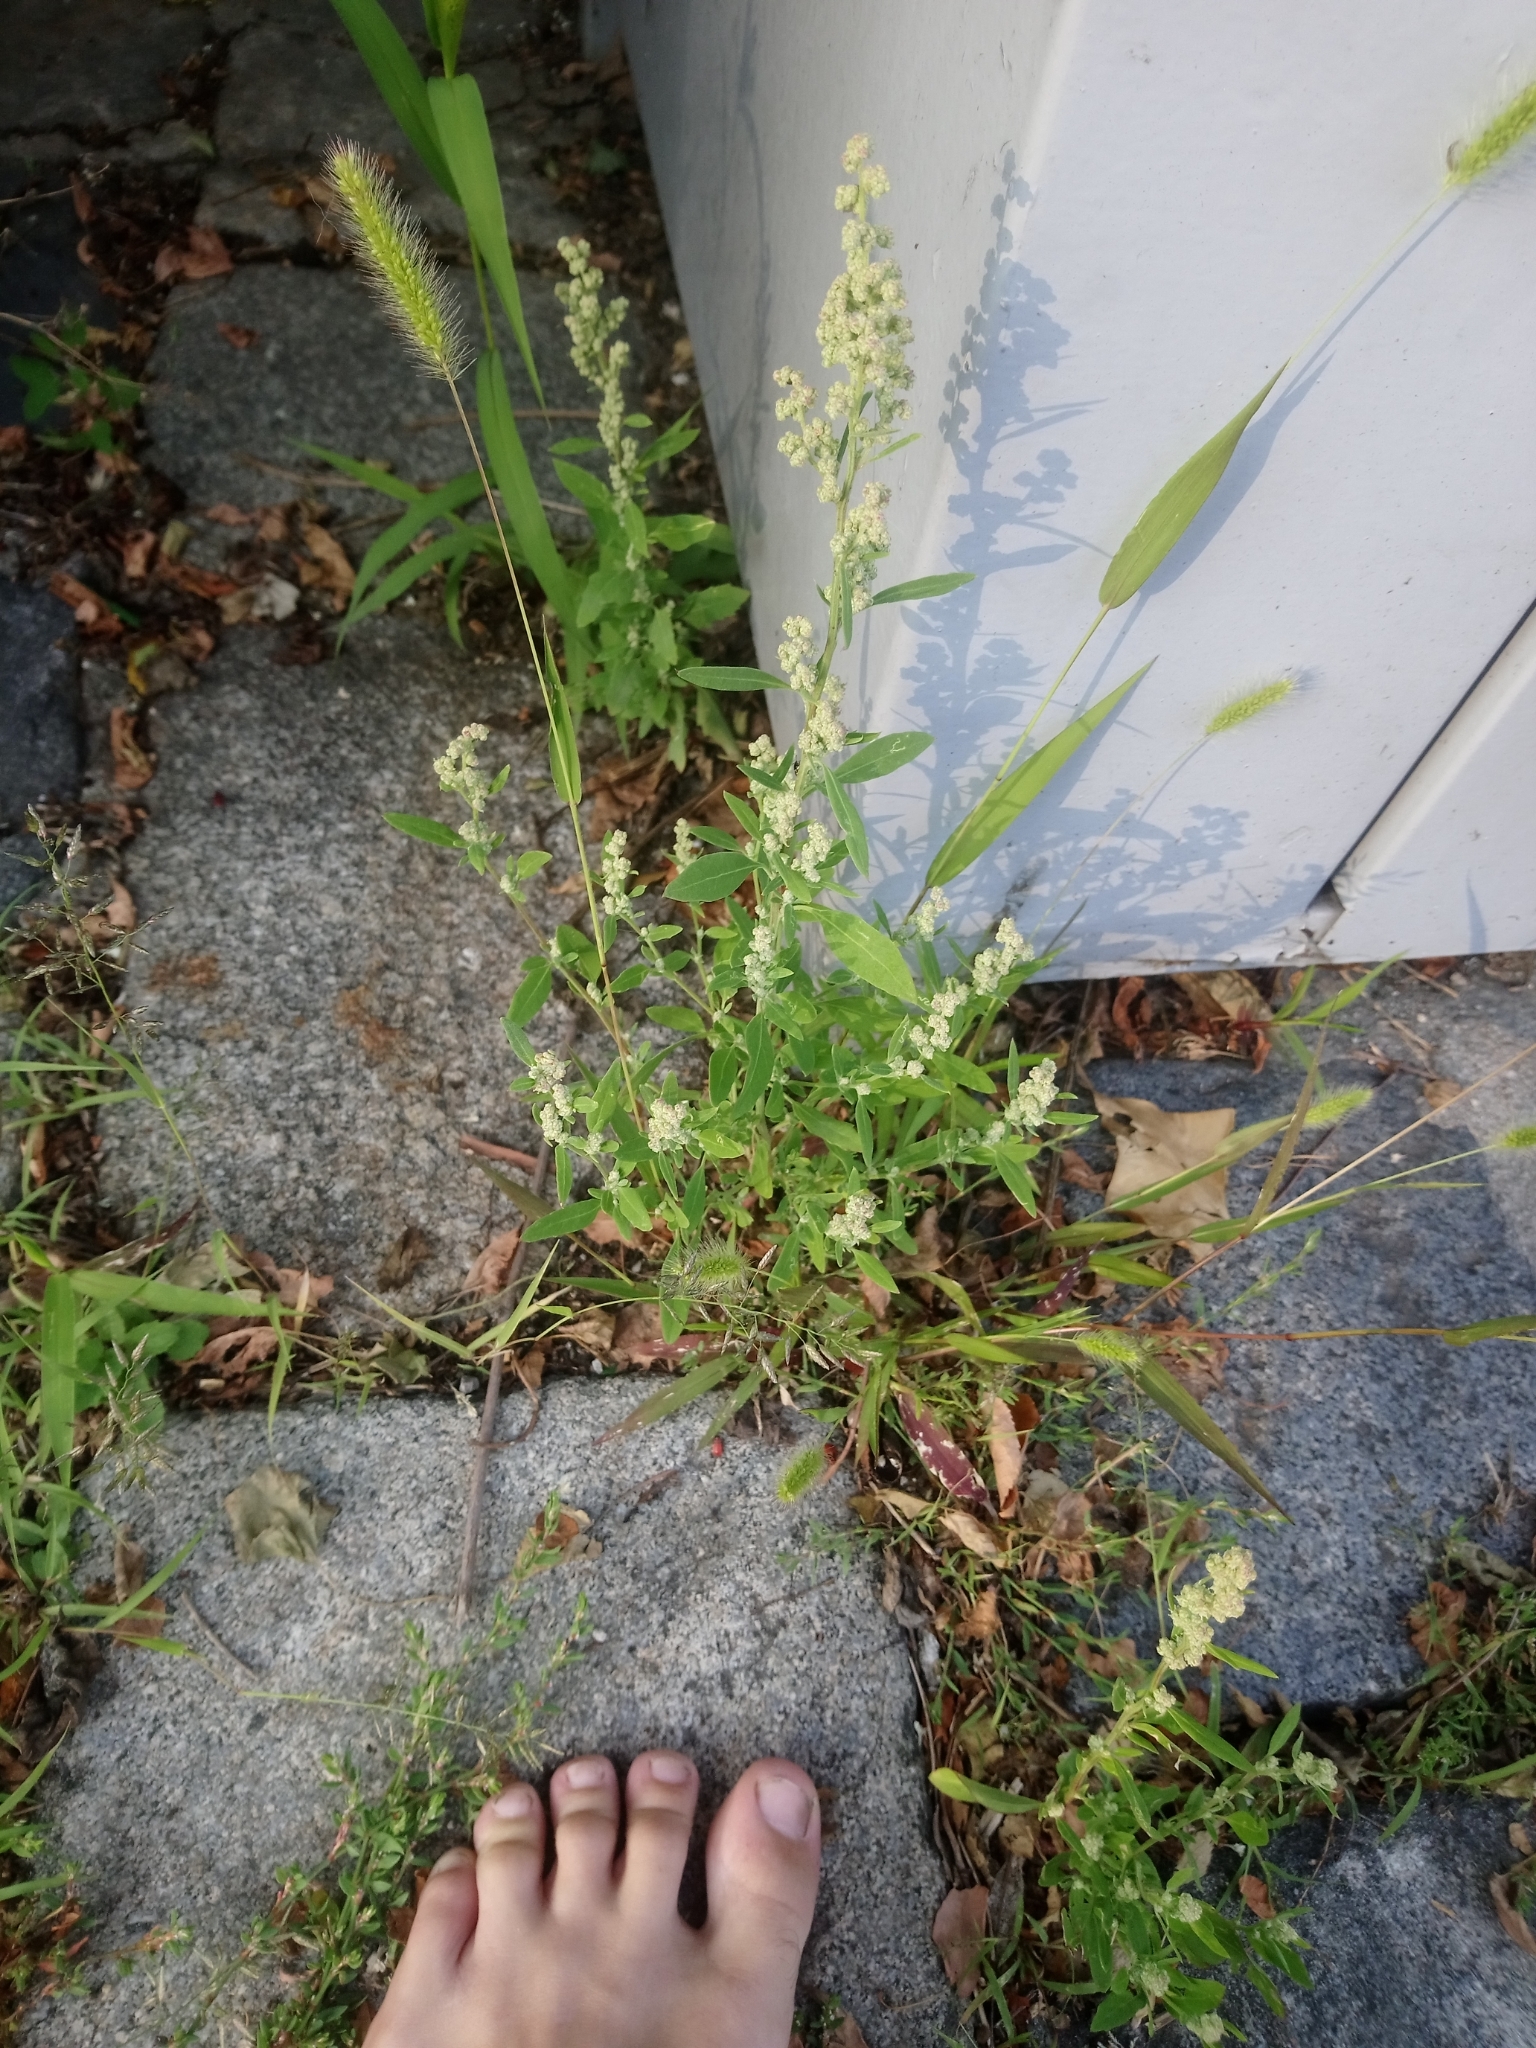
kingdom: Plantae
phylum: Tracheophyta
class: Magnoliopsida
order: Caryophyllales
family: Amaranthaceae
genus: Chenopodium
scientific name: Chenopodium album
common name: Fat-hen
